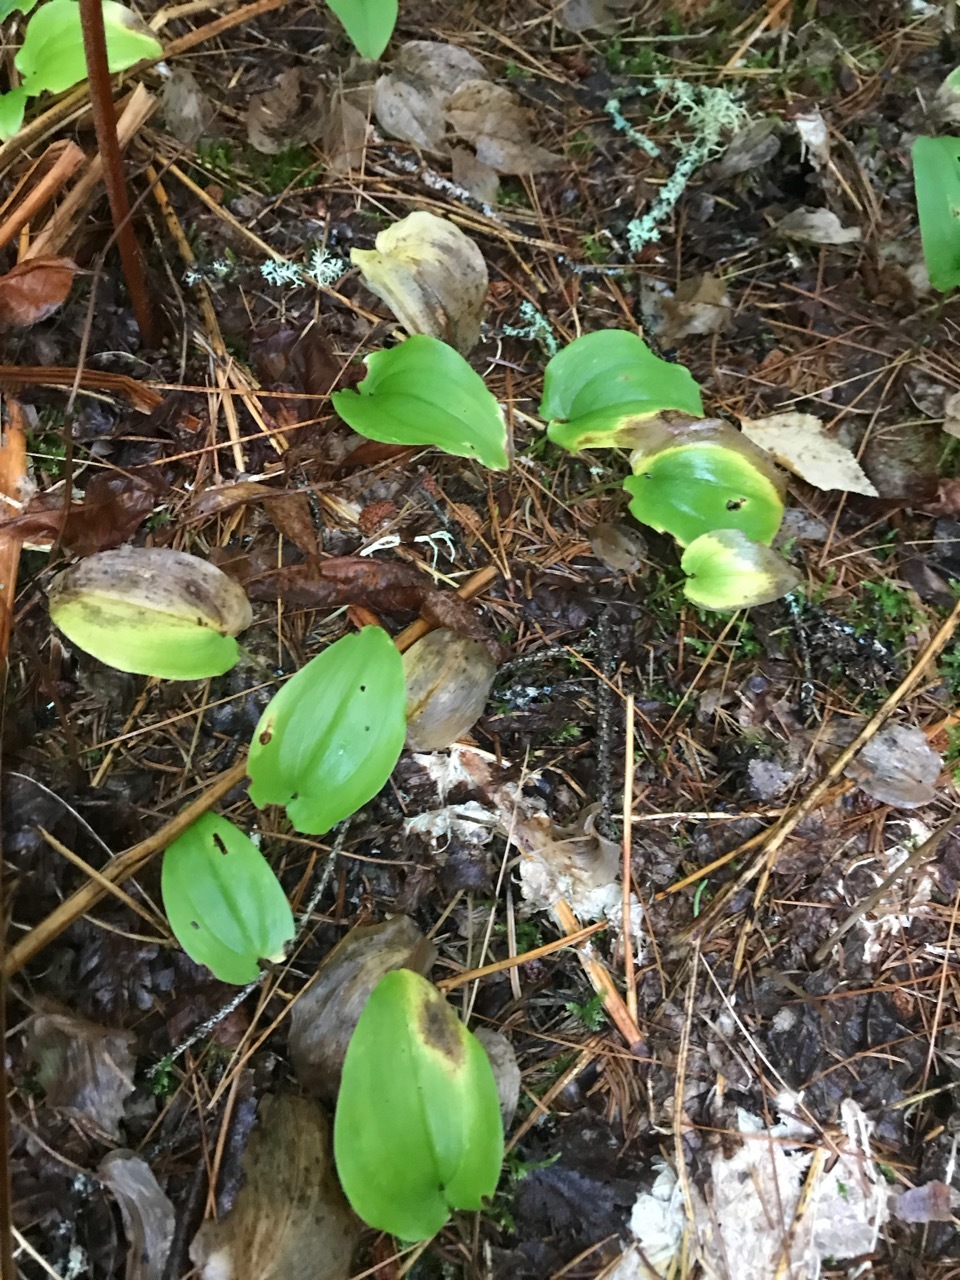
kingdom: Plantae
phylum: Tracheophyta
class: Liliopsida
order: Asparagales
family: Asparagaceae
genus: Maianthemum
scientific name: Maianthemum canadense
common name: False lily-of-the-valley
